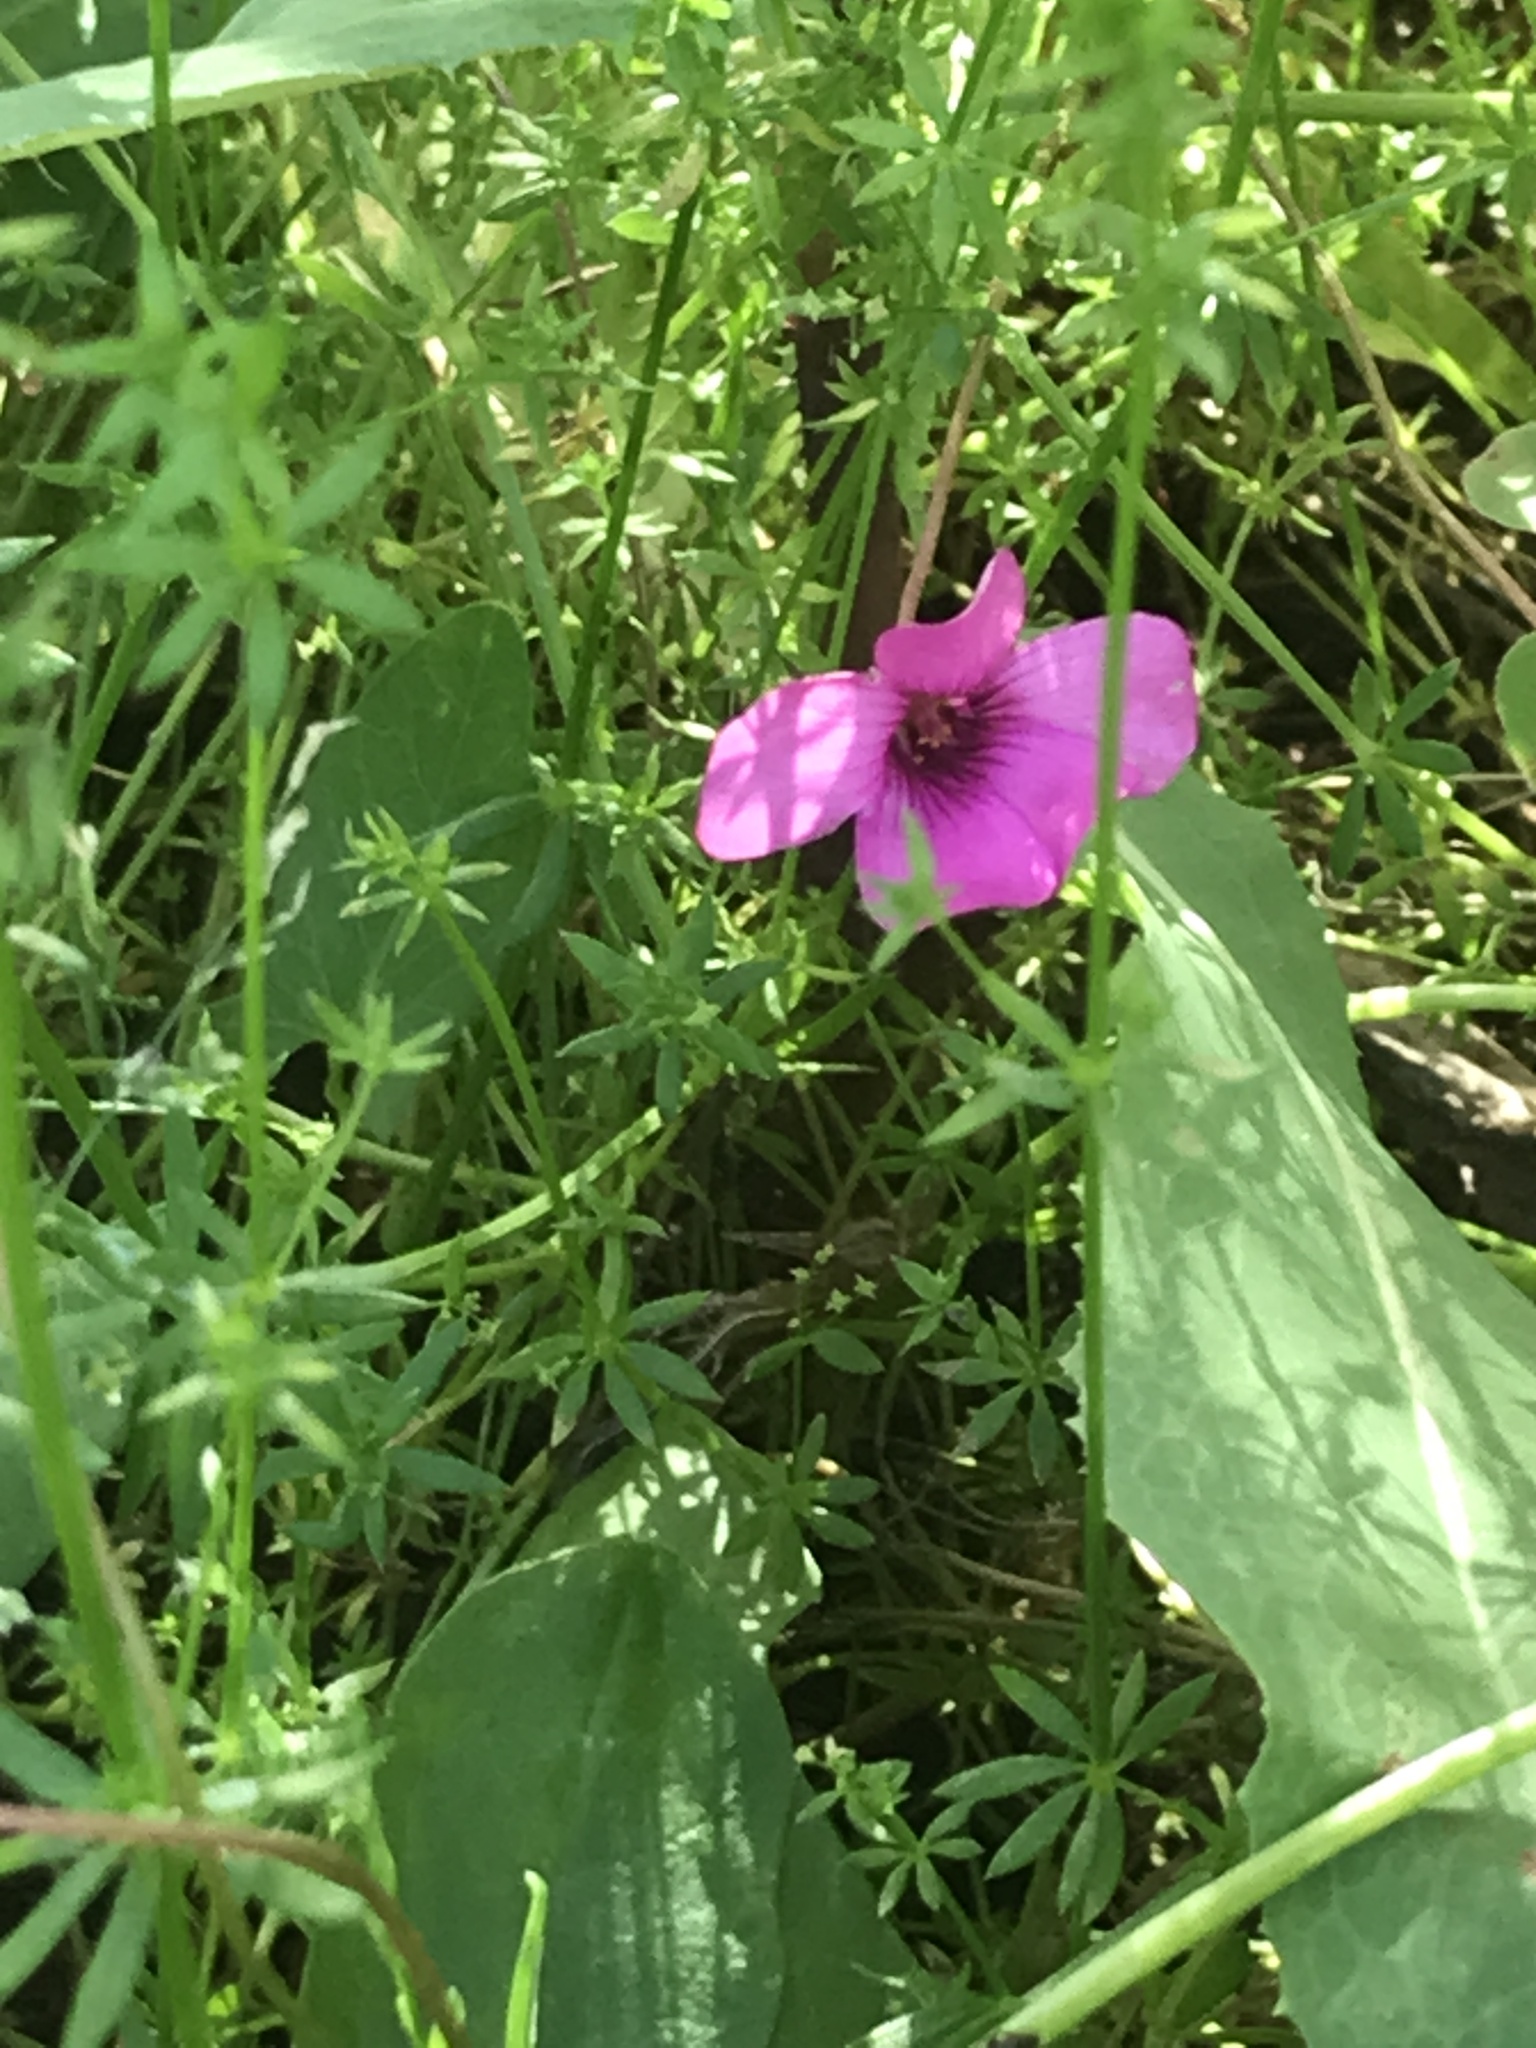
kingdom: Plantae
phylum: Tracheophyta
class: Magnoliopsida
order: Oxalidales
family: Oxalidaceae
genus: Oxalis
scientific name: Oxalis articulata
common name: Pink-sorrel
